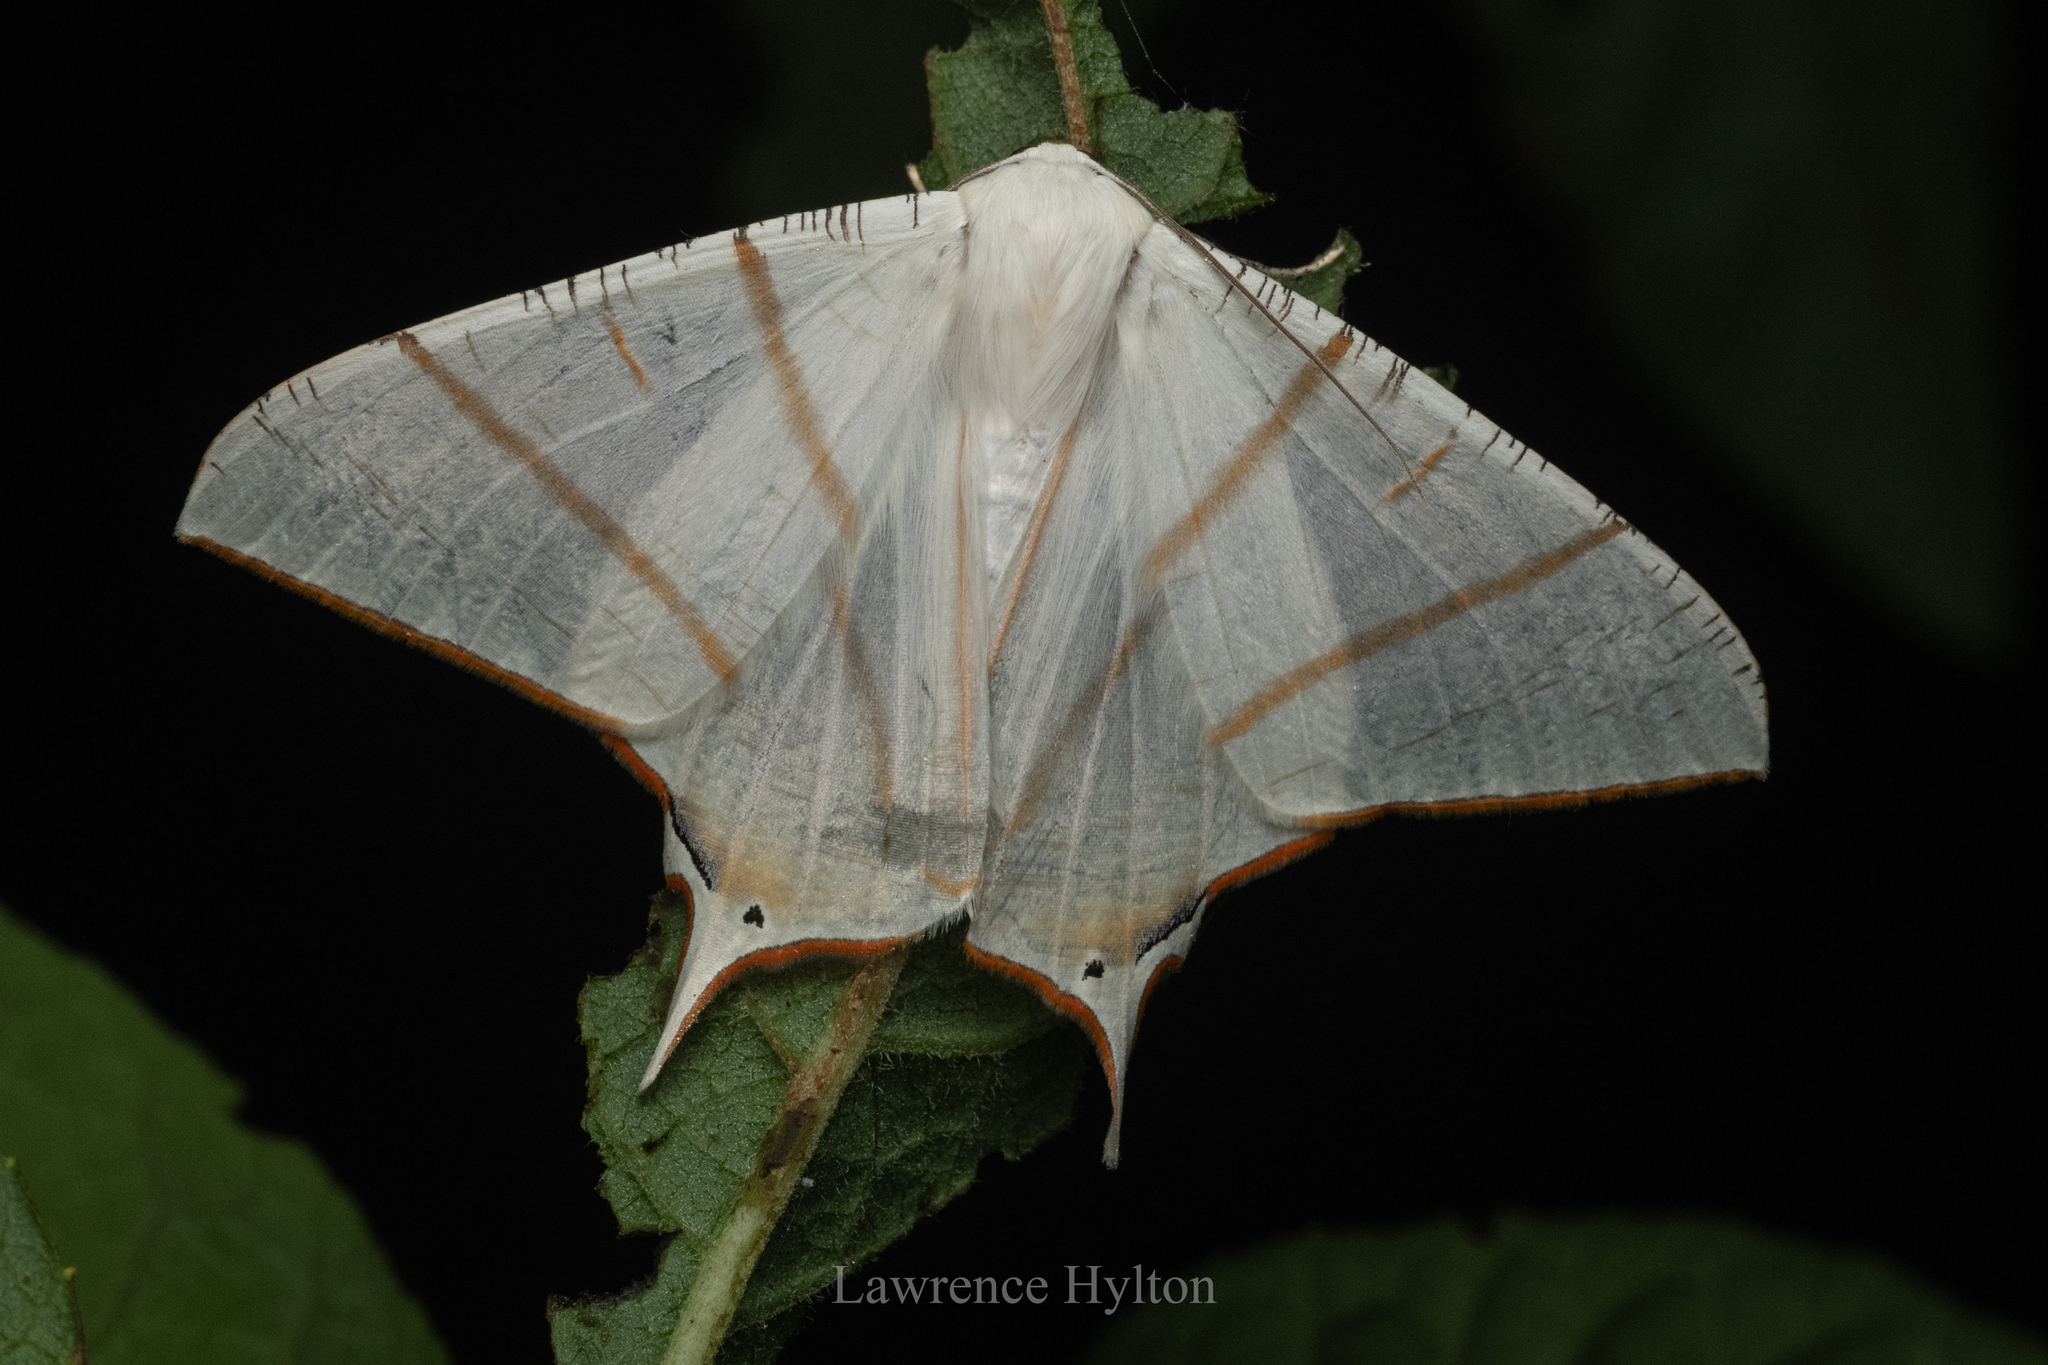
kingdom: Animalia
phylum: Arthropoda
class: Insecta
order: Lepidoptera
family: Geometridae
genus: Ourapteryx
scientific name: Ourapteryx clara
